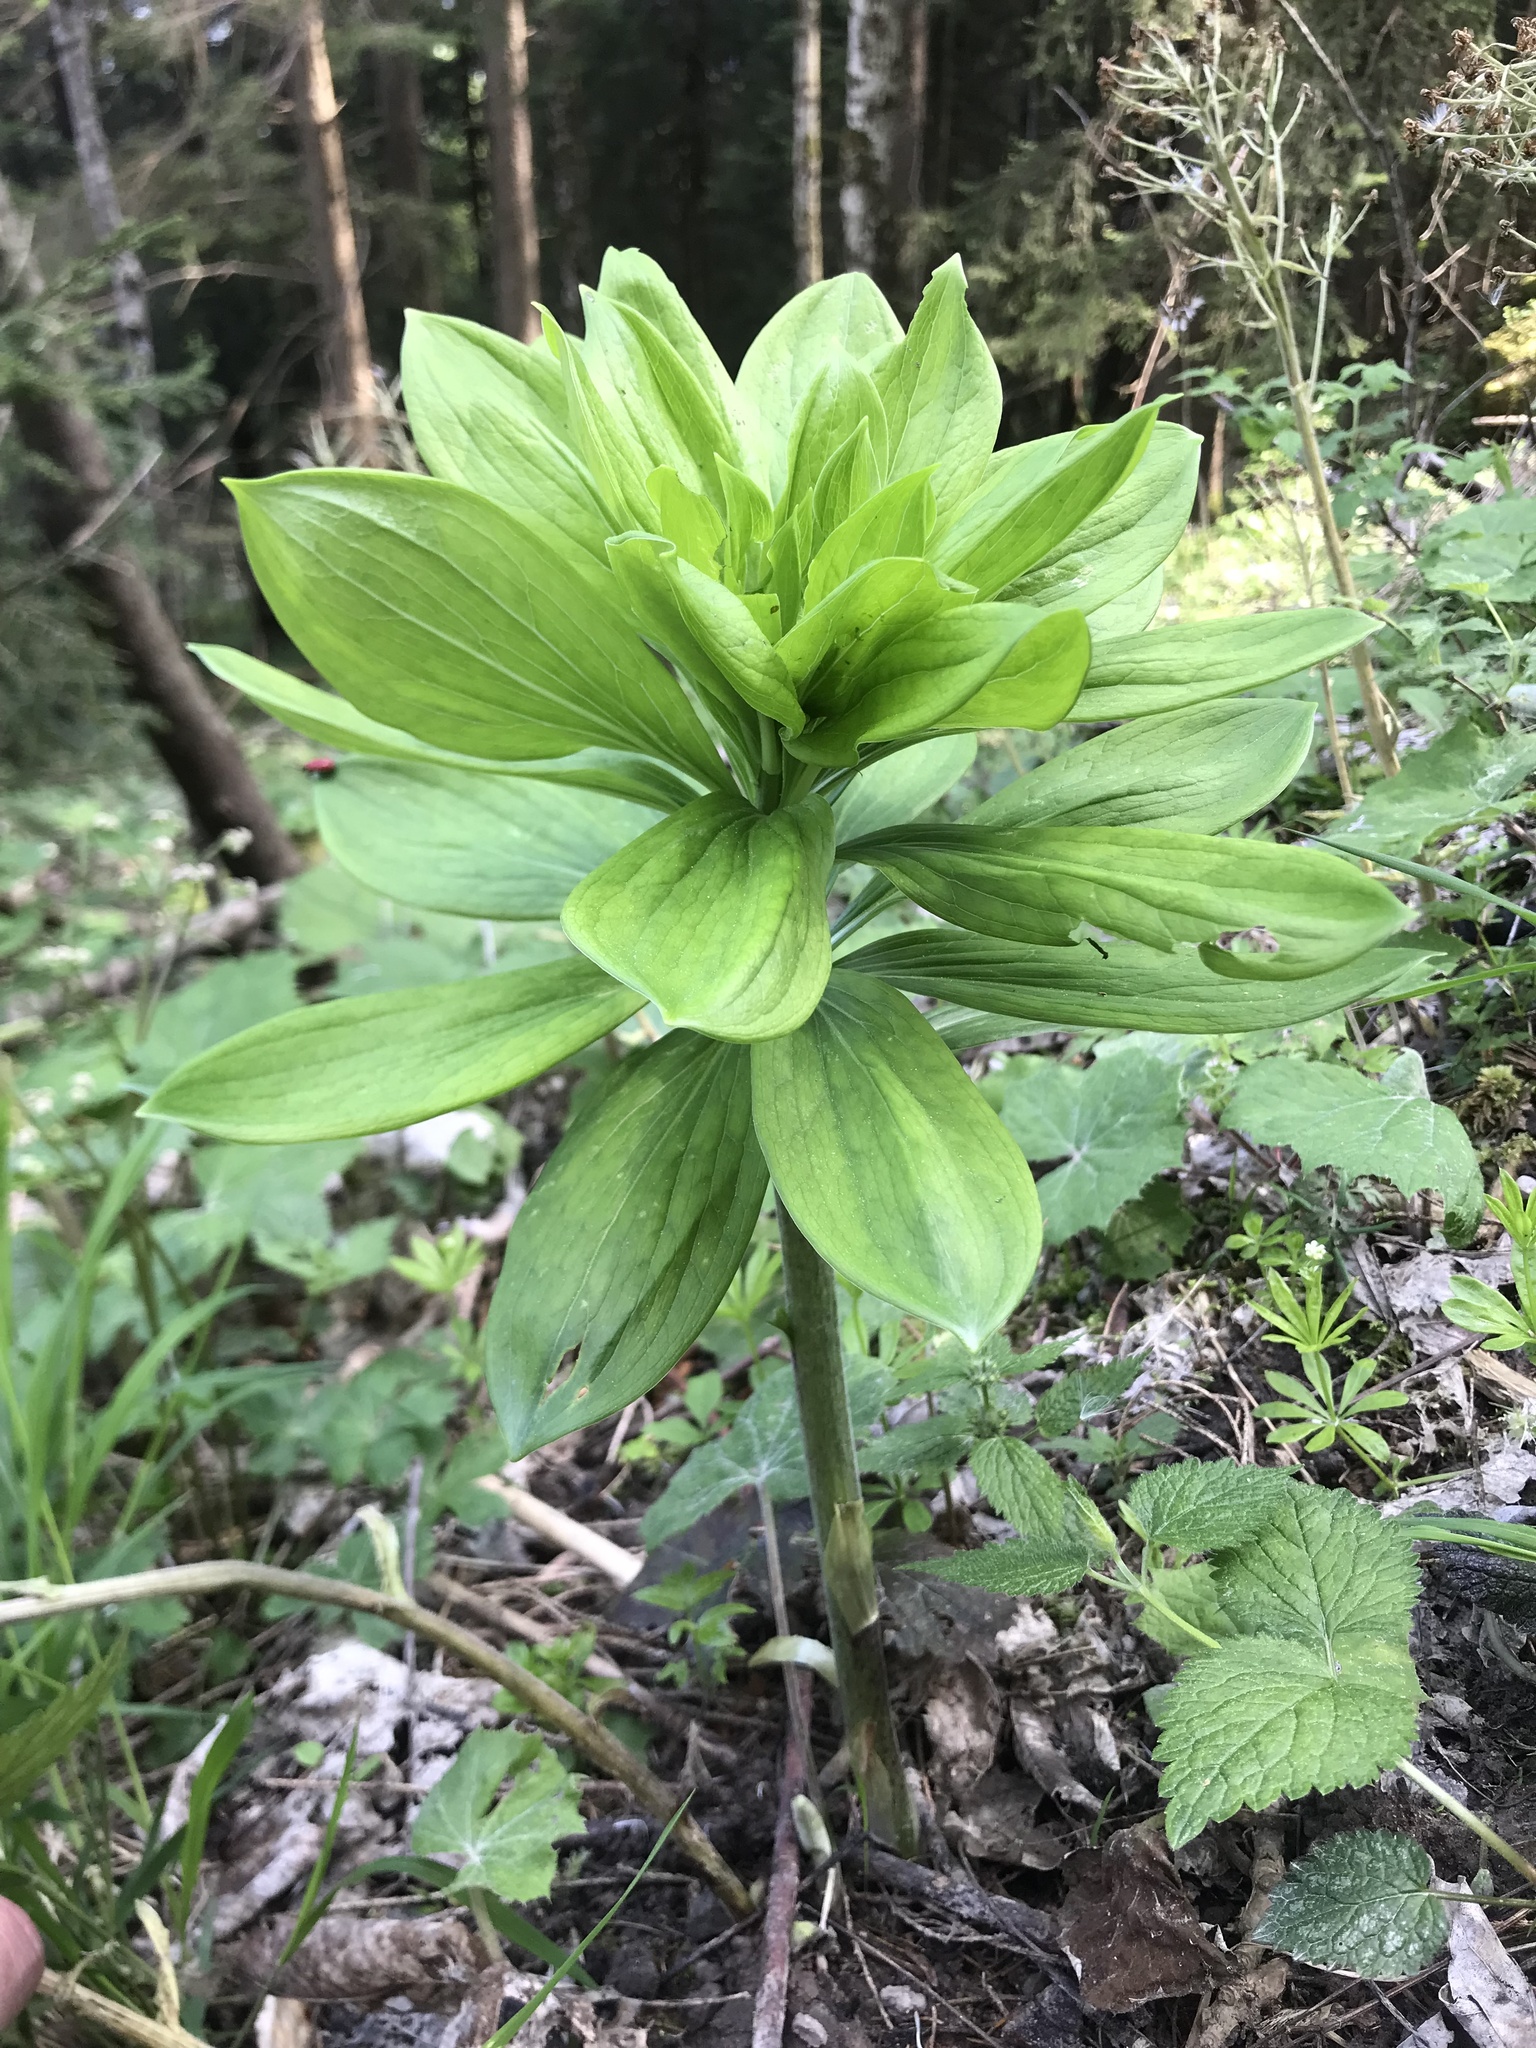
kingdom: Plantae
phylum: Tracheophyta
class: Liliopsida
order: Liliales
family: Liliaceae
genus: Lilium
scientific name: Lilium martagon
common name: Martagon lily
